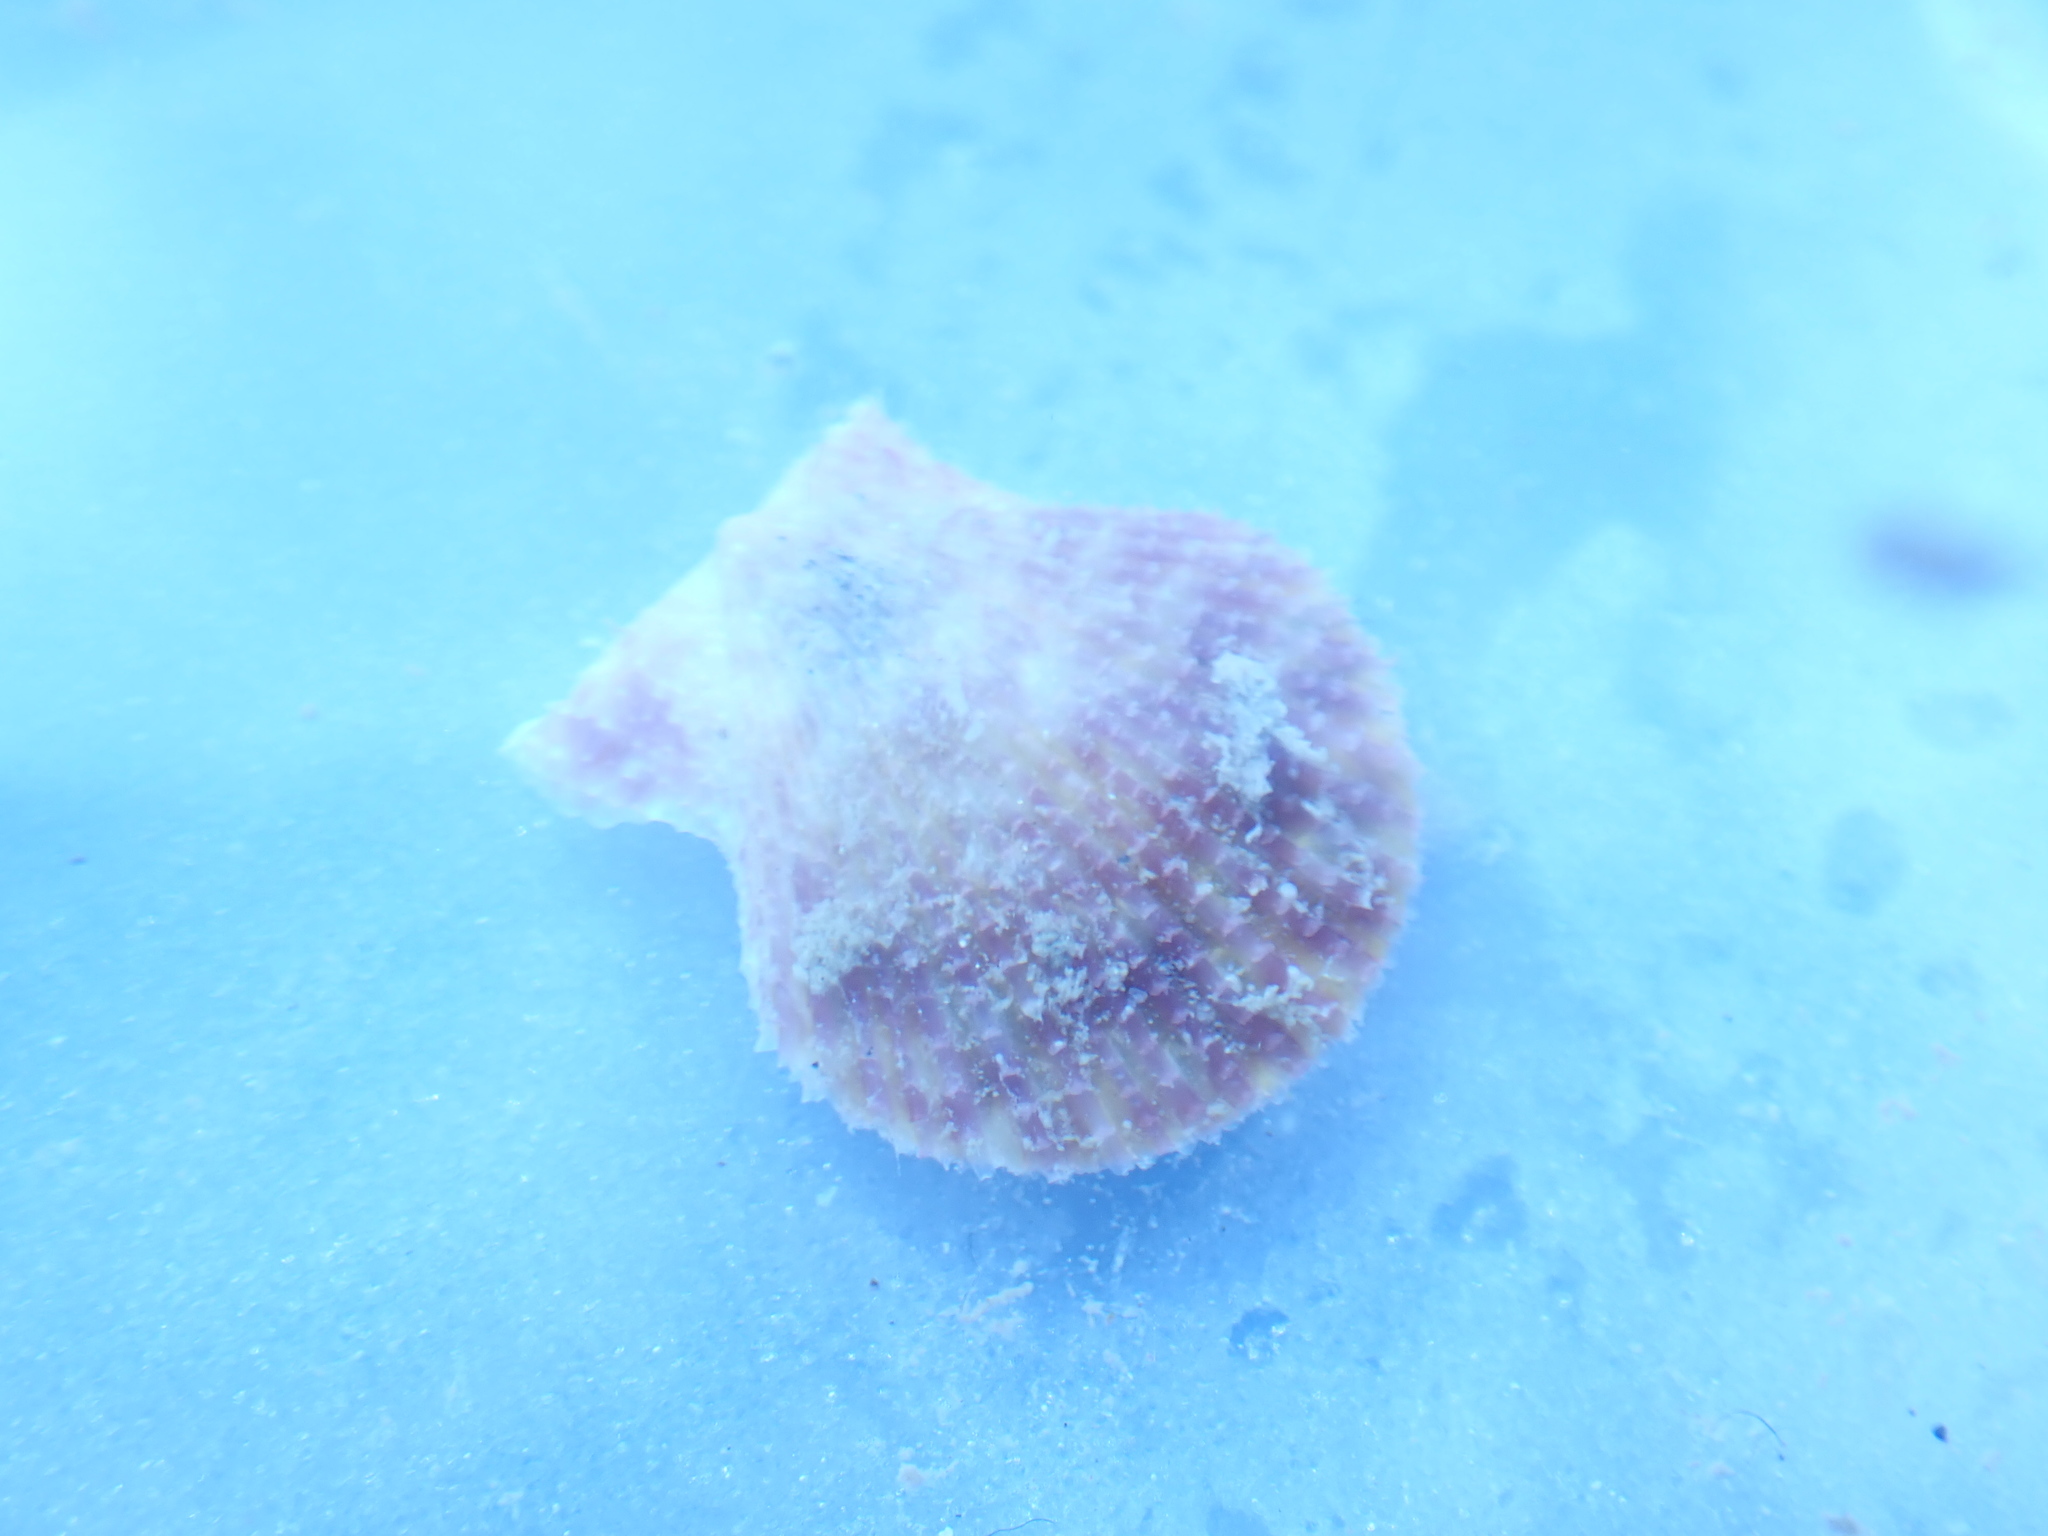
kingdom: Animalia
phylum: Mollusca
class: Bivalvia
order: Pectinida
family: Pectinidae
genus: Mimachlamys
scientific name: Mimachlamys asperrima
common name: Austral scallop
